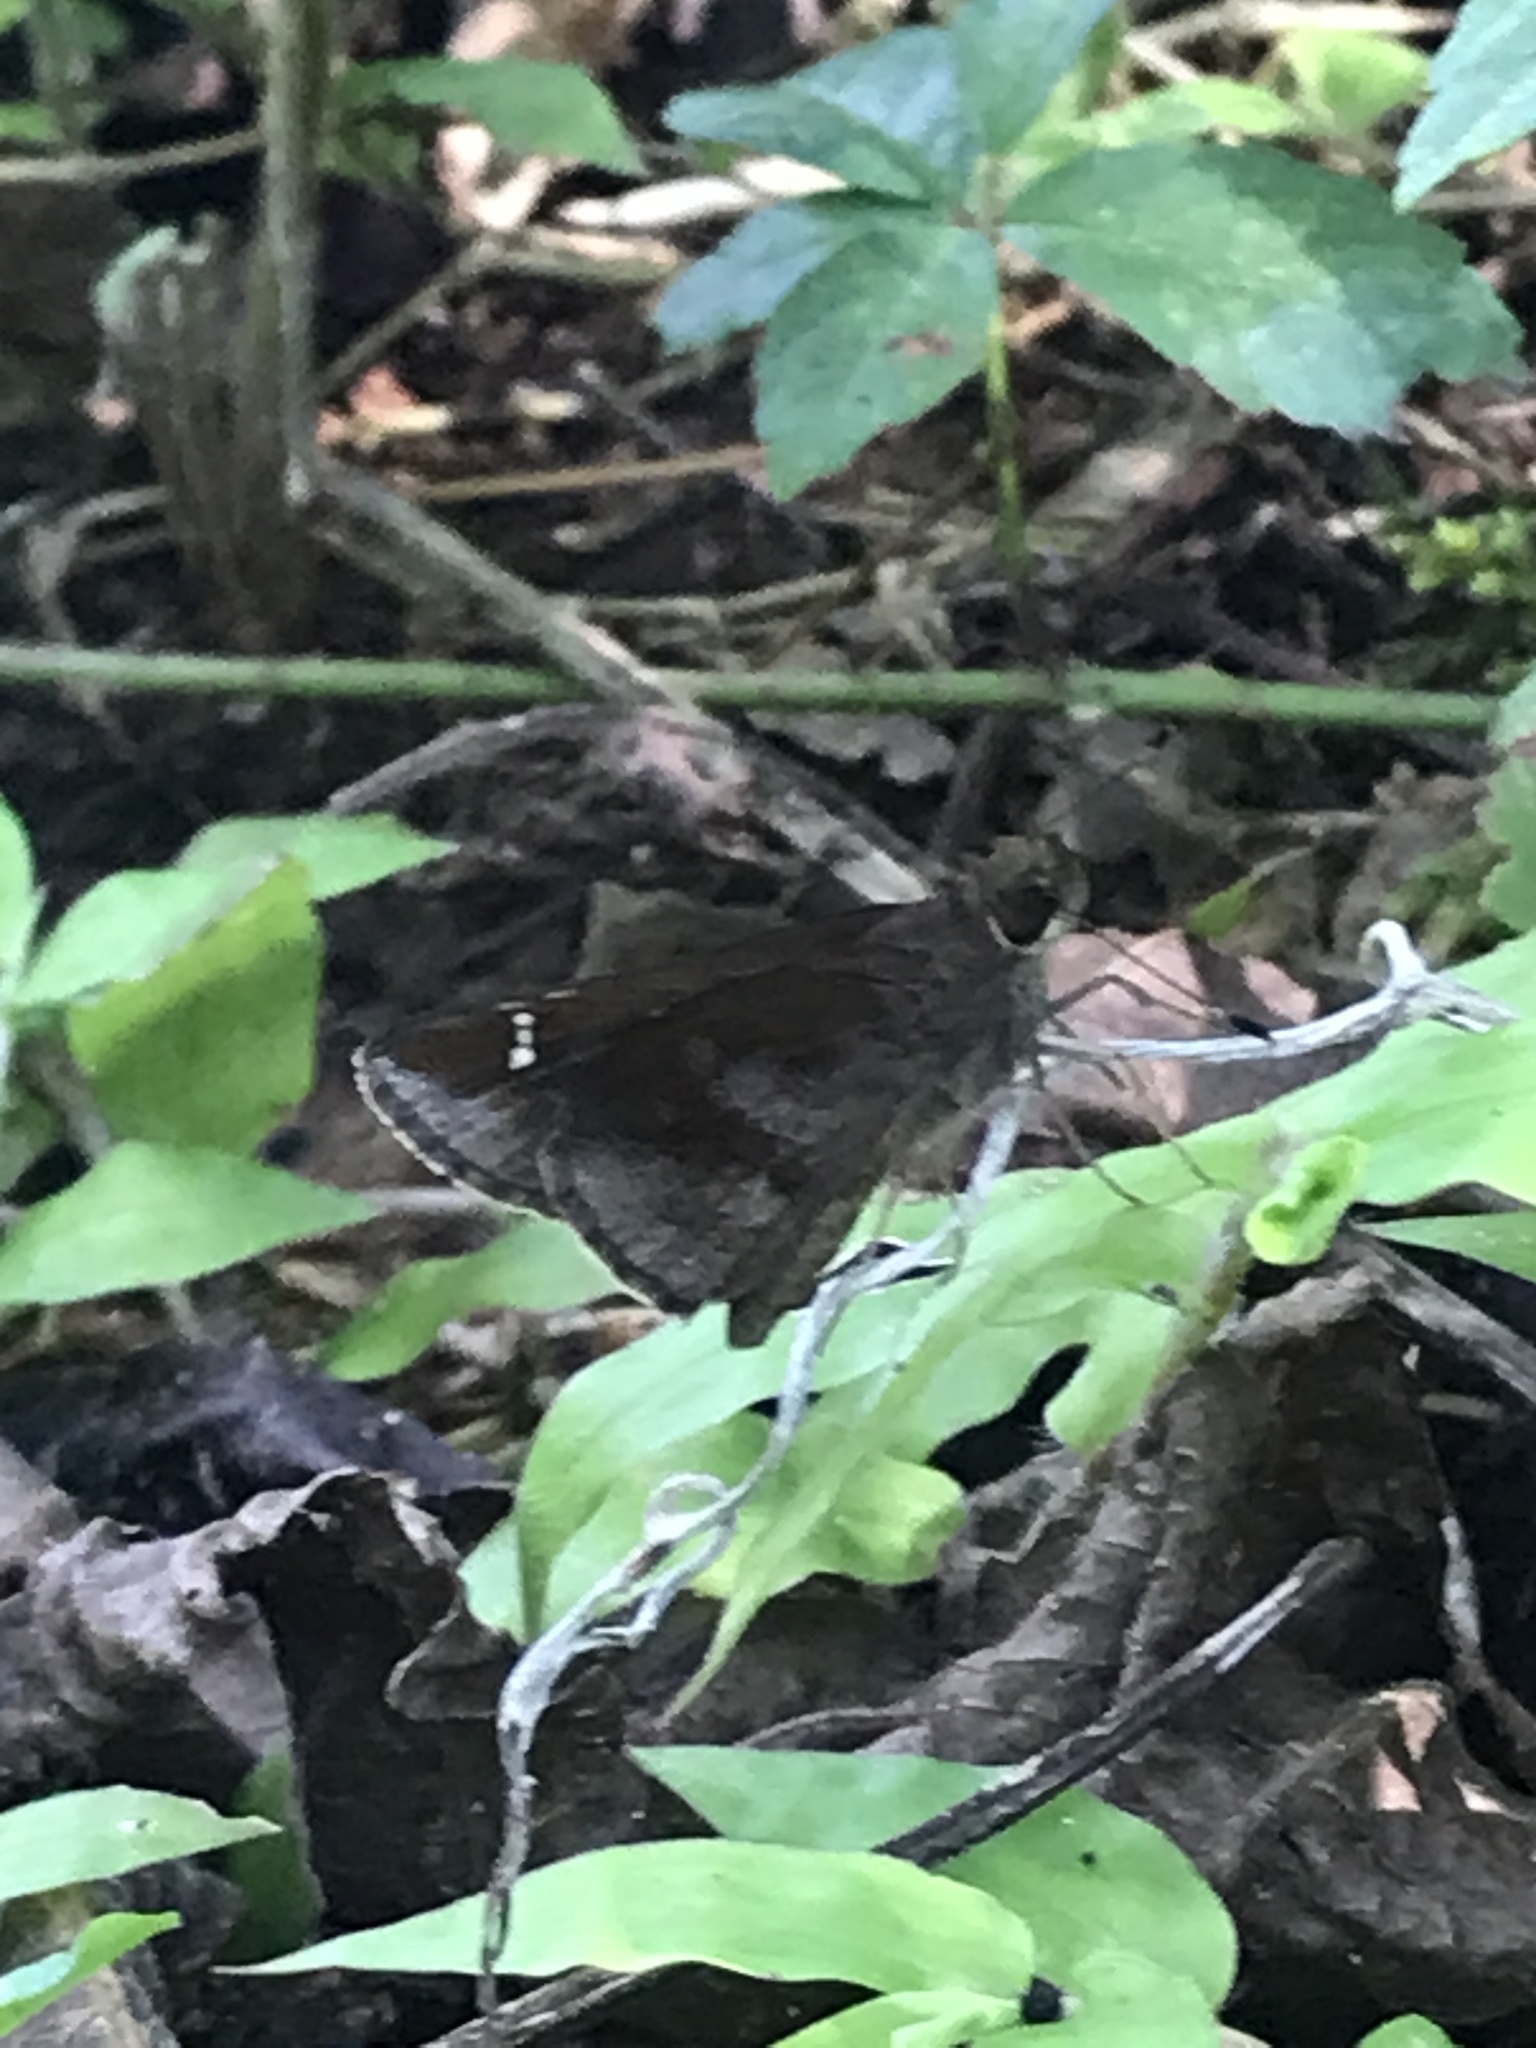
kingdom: Animalia
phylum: Arthropoda
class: Insecta
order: Lepidoptera
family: Hesperiidae
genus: Lerema
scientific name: Lerema accius
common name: Clouded skipper
